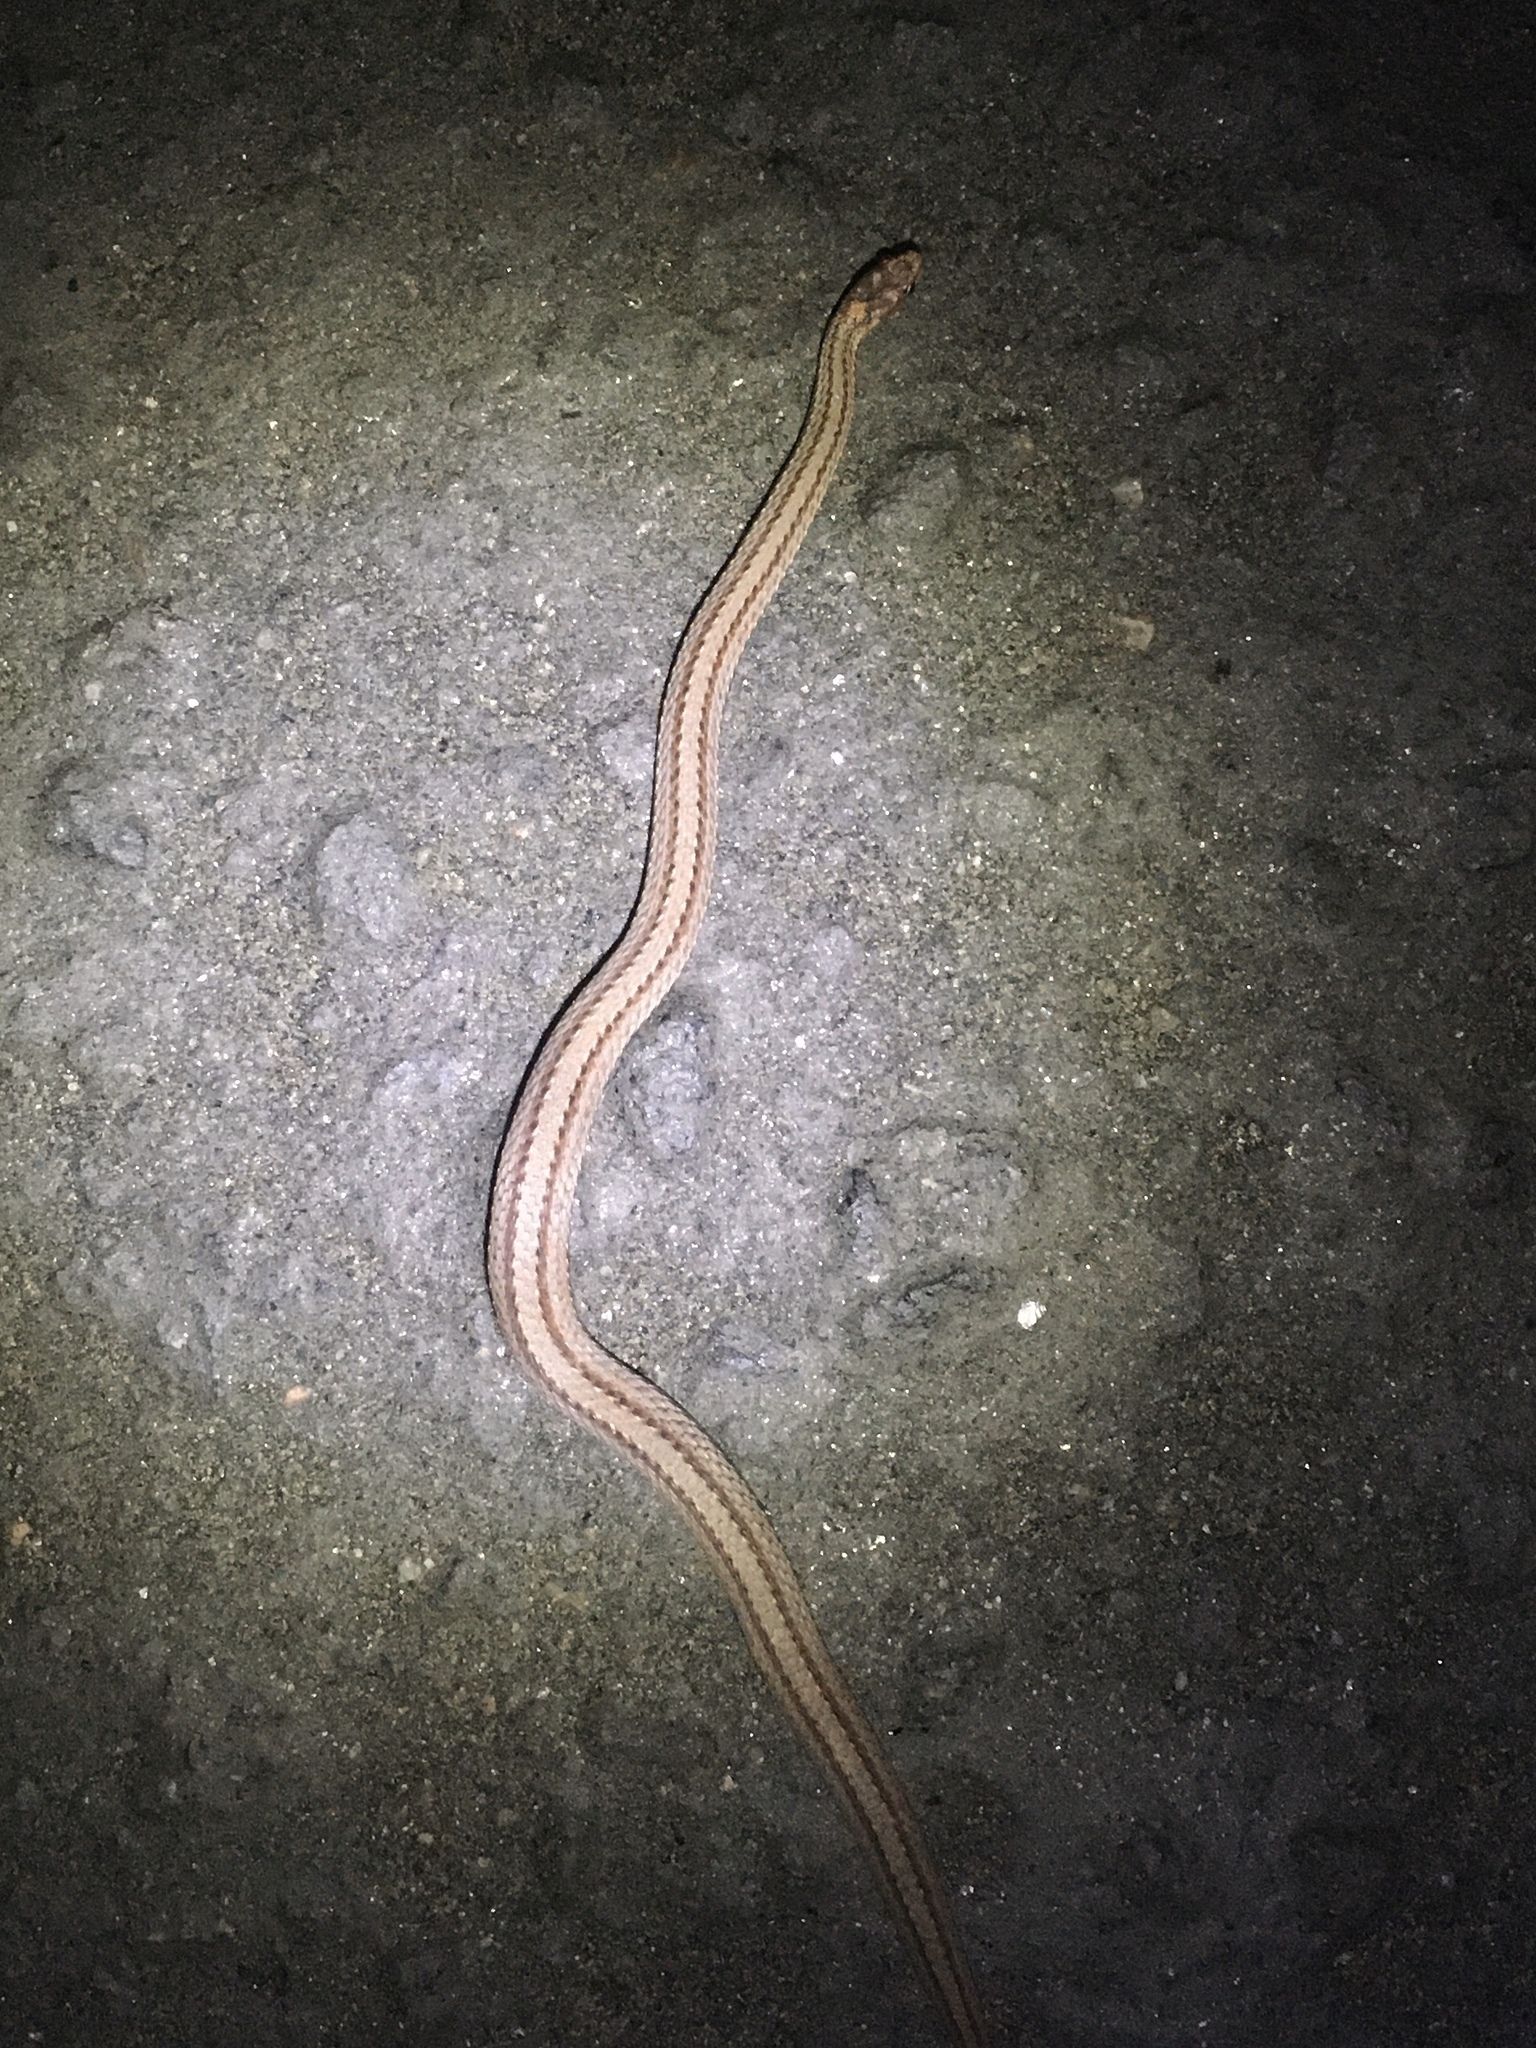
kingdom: Animalia
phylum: Chordata
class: Squamata
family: Colubridae
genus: Storeria
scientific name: Storeria occipitomaculata
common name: Redbelly snake
